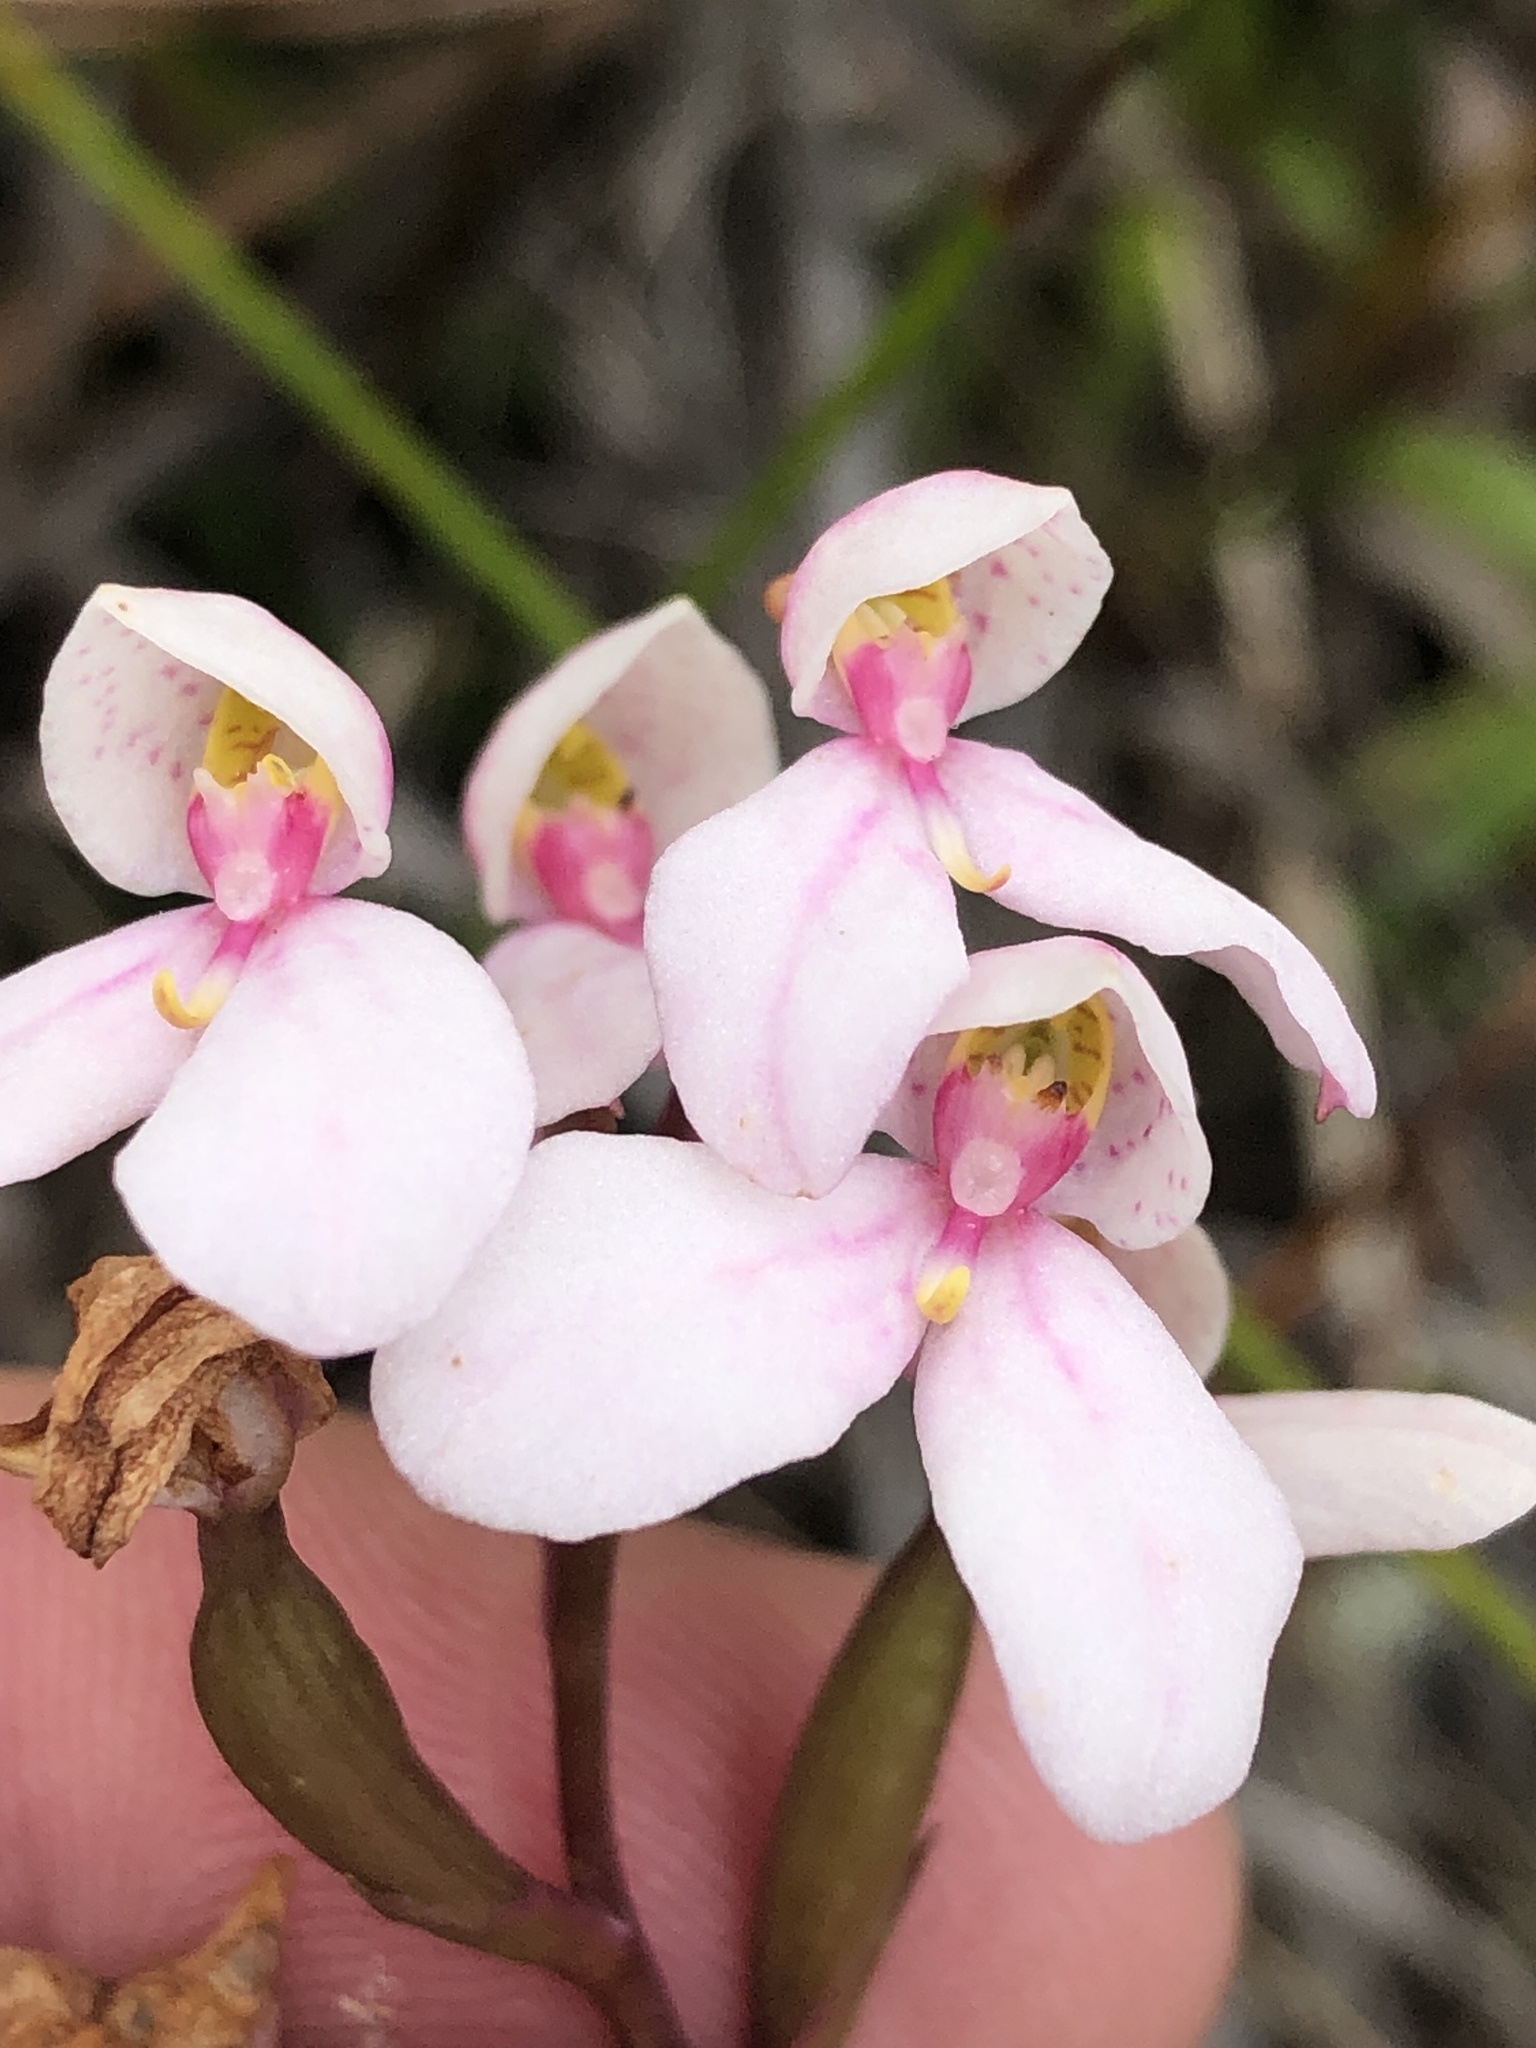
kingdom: Plantae
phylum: Tracheophyta
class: Liliopsida
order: Asparagales
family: Orchidaceae
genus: Disa
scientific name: Disa tripetaloides
